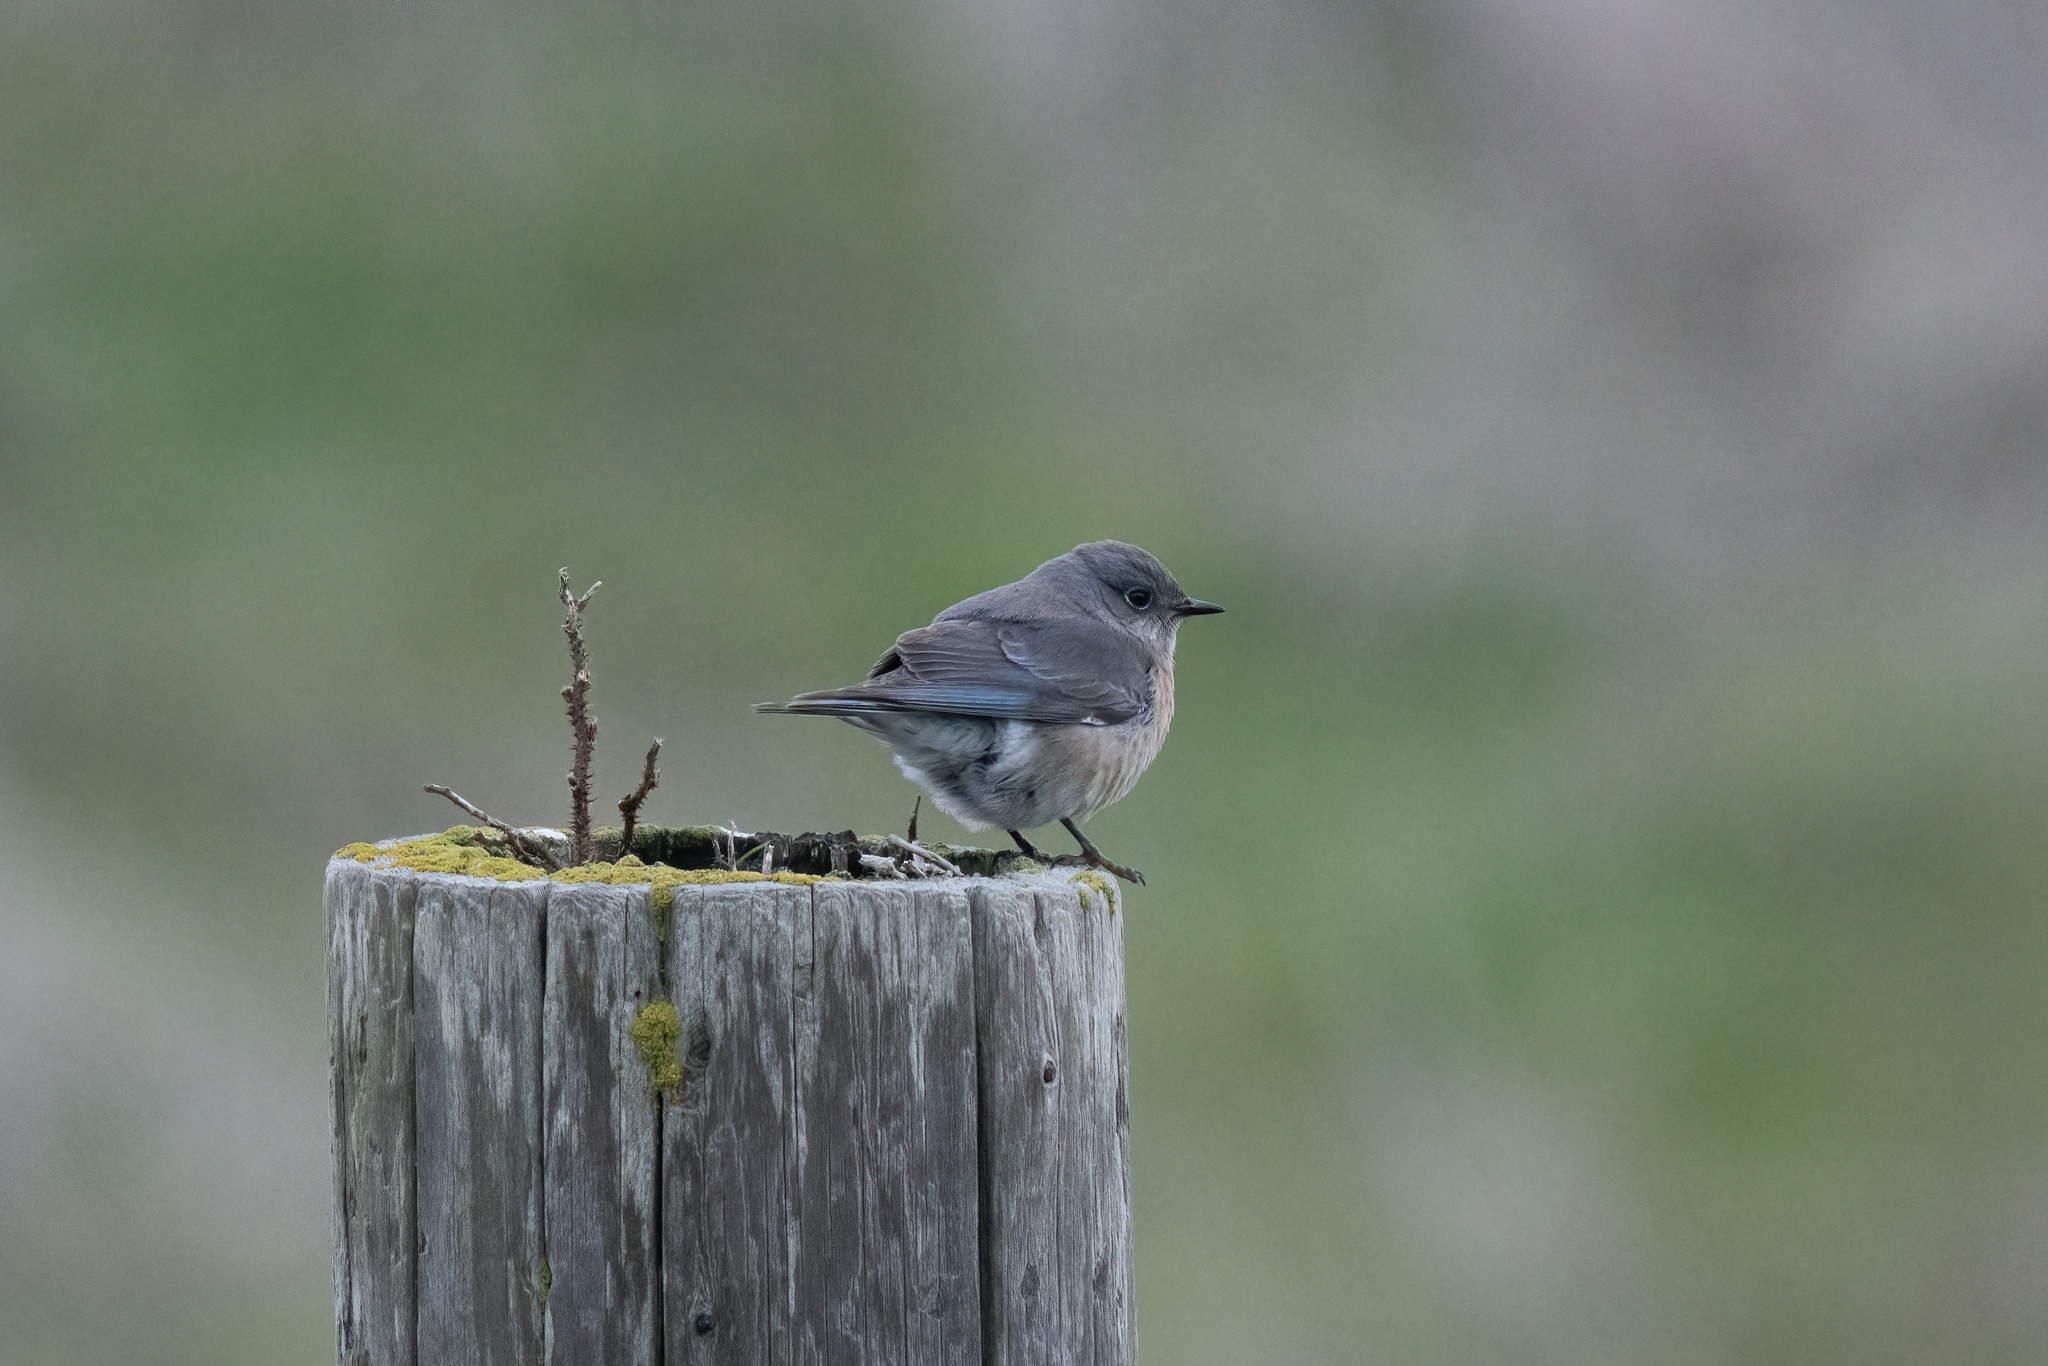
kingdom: Animalia
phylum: Chordata
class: Aves
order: Passeriformes
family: Turdidae
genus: Sialia
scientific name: Sialia mexicana
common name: Western bluebird
